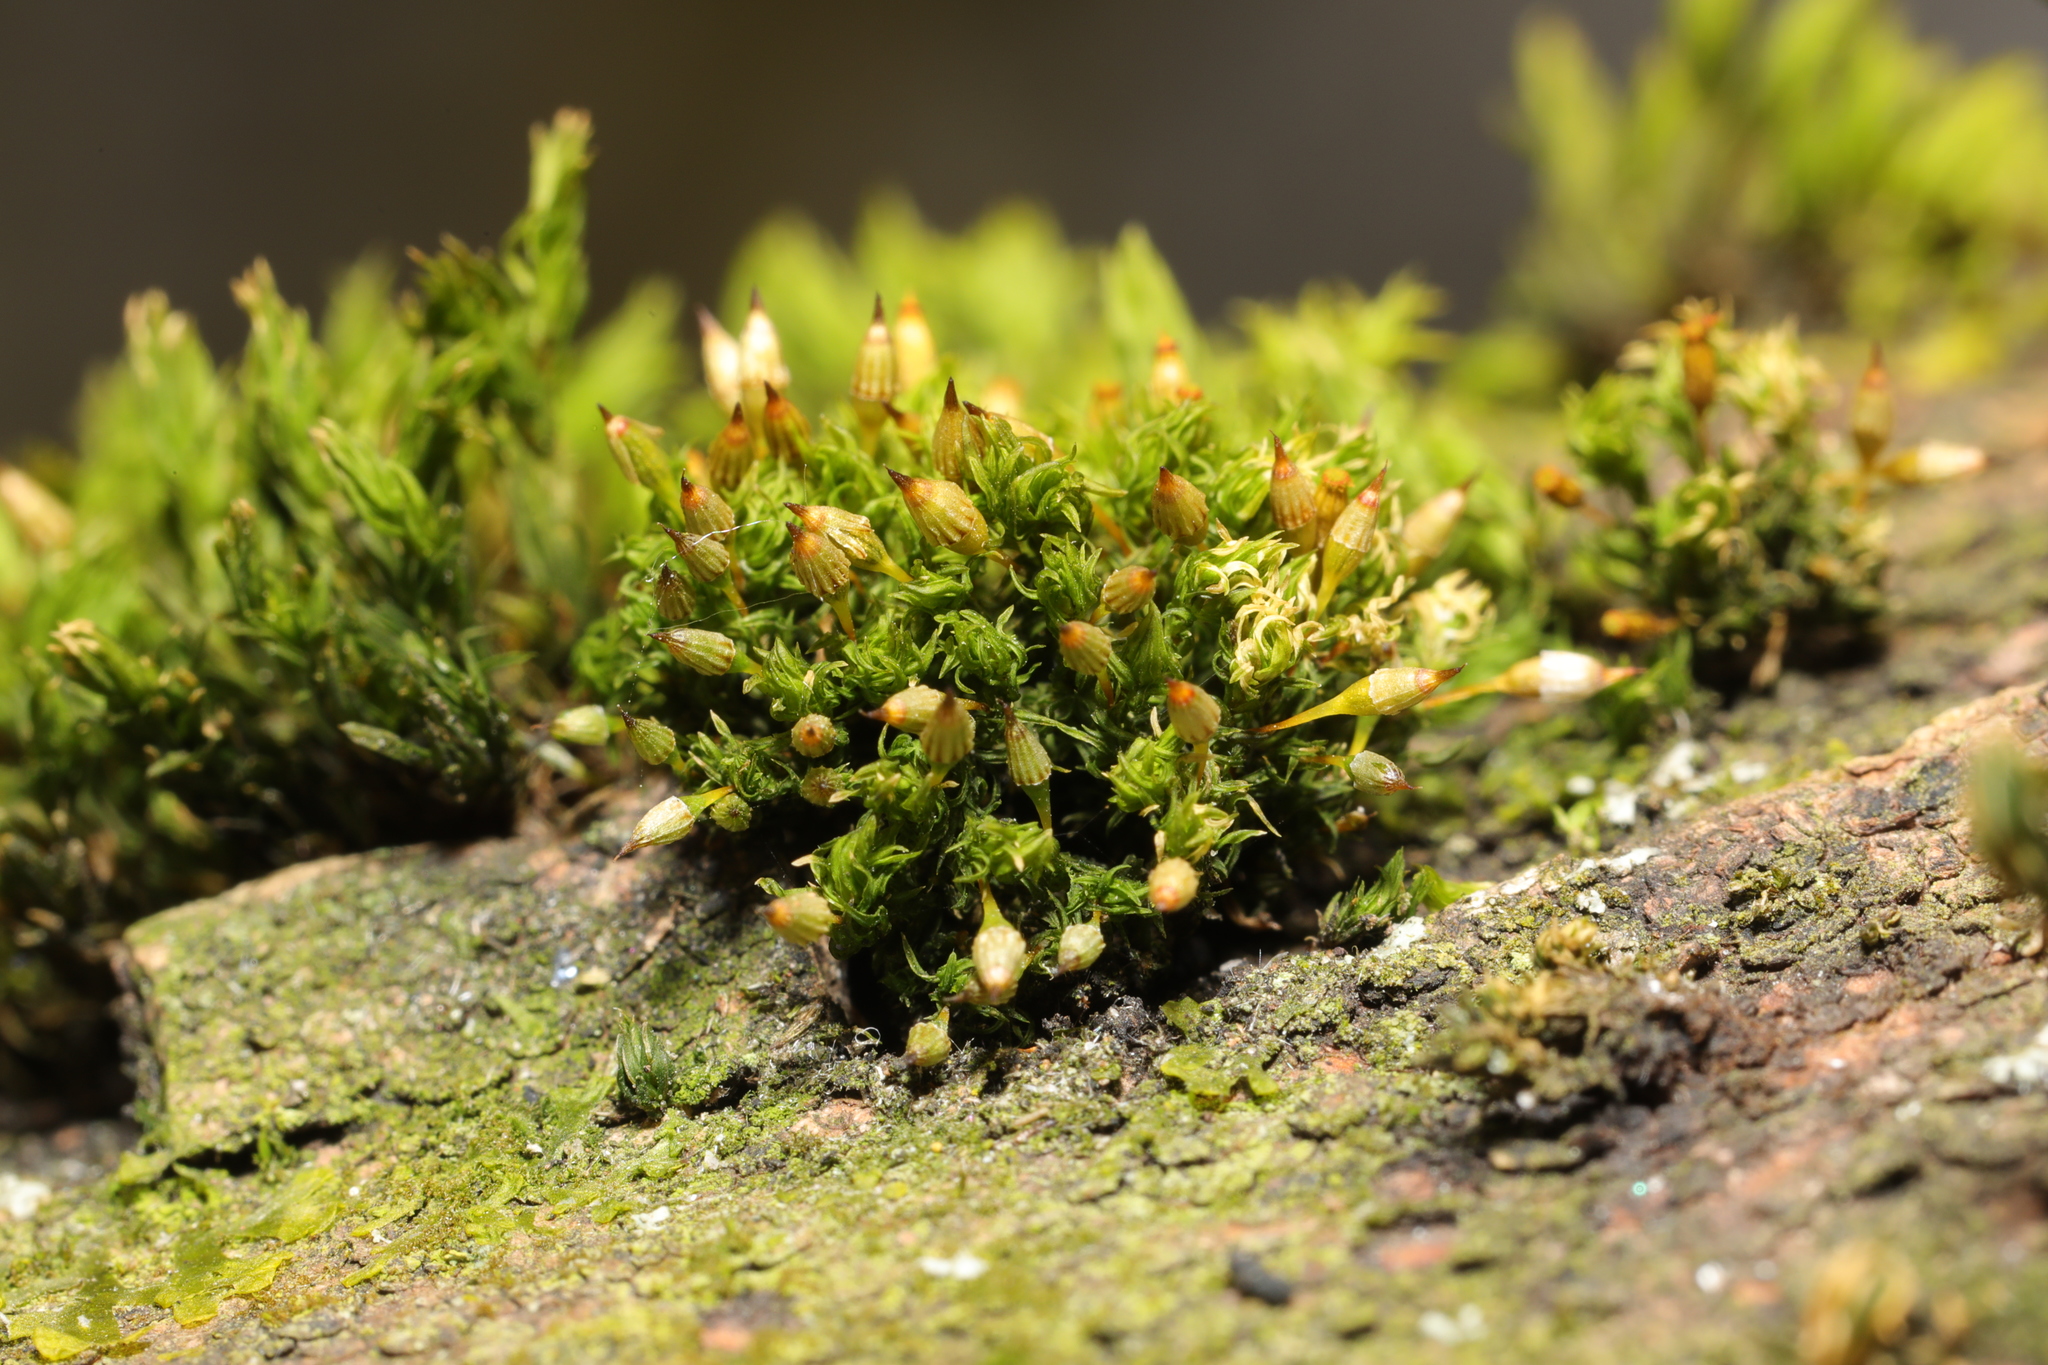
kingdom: Plantae
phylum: Bryophyta
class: Bryopsida
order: Orthotrichales
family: Orthotrichaceae
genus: Orthotrichum
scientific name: Orthotrichum pulchellum
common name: Elegant bristle-moss
